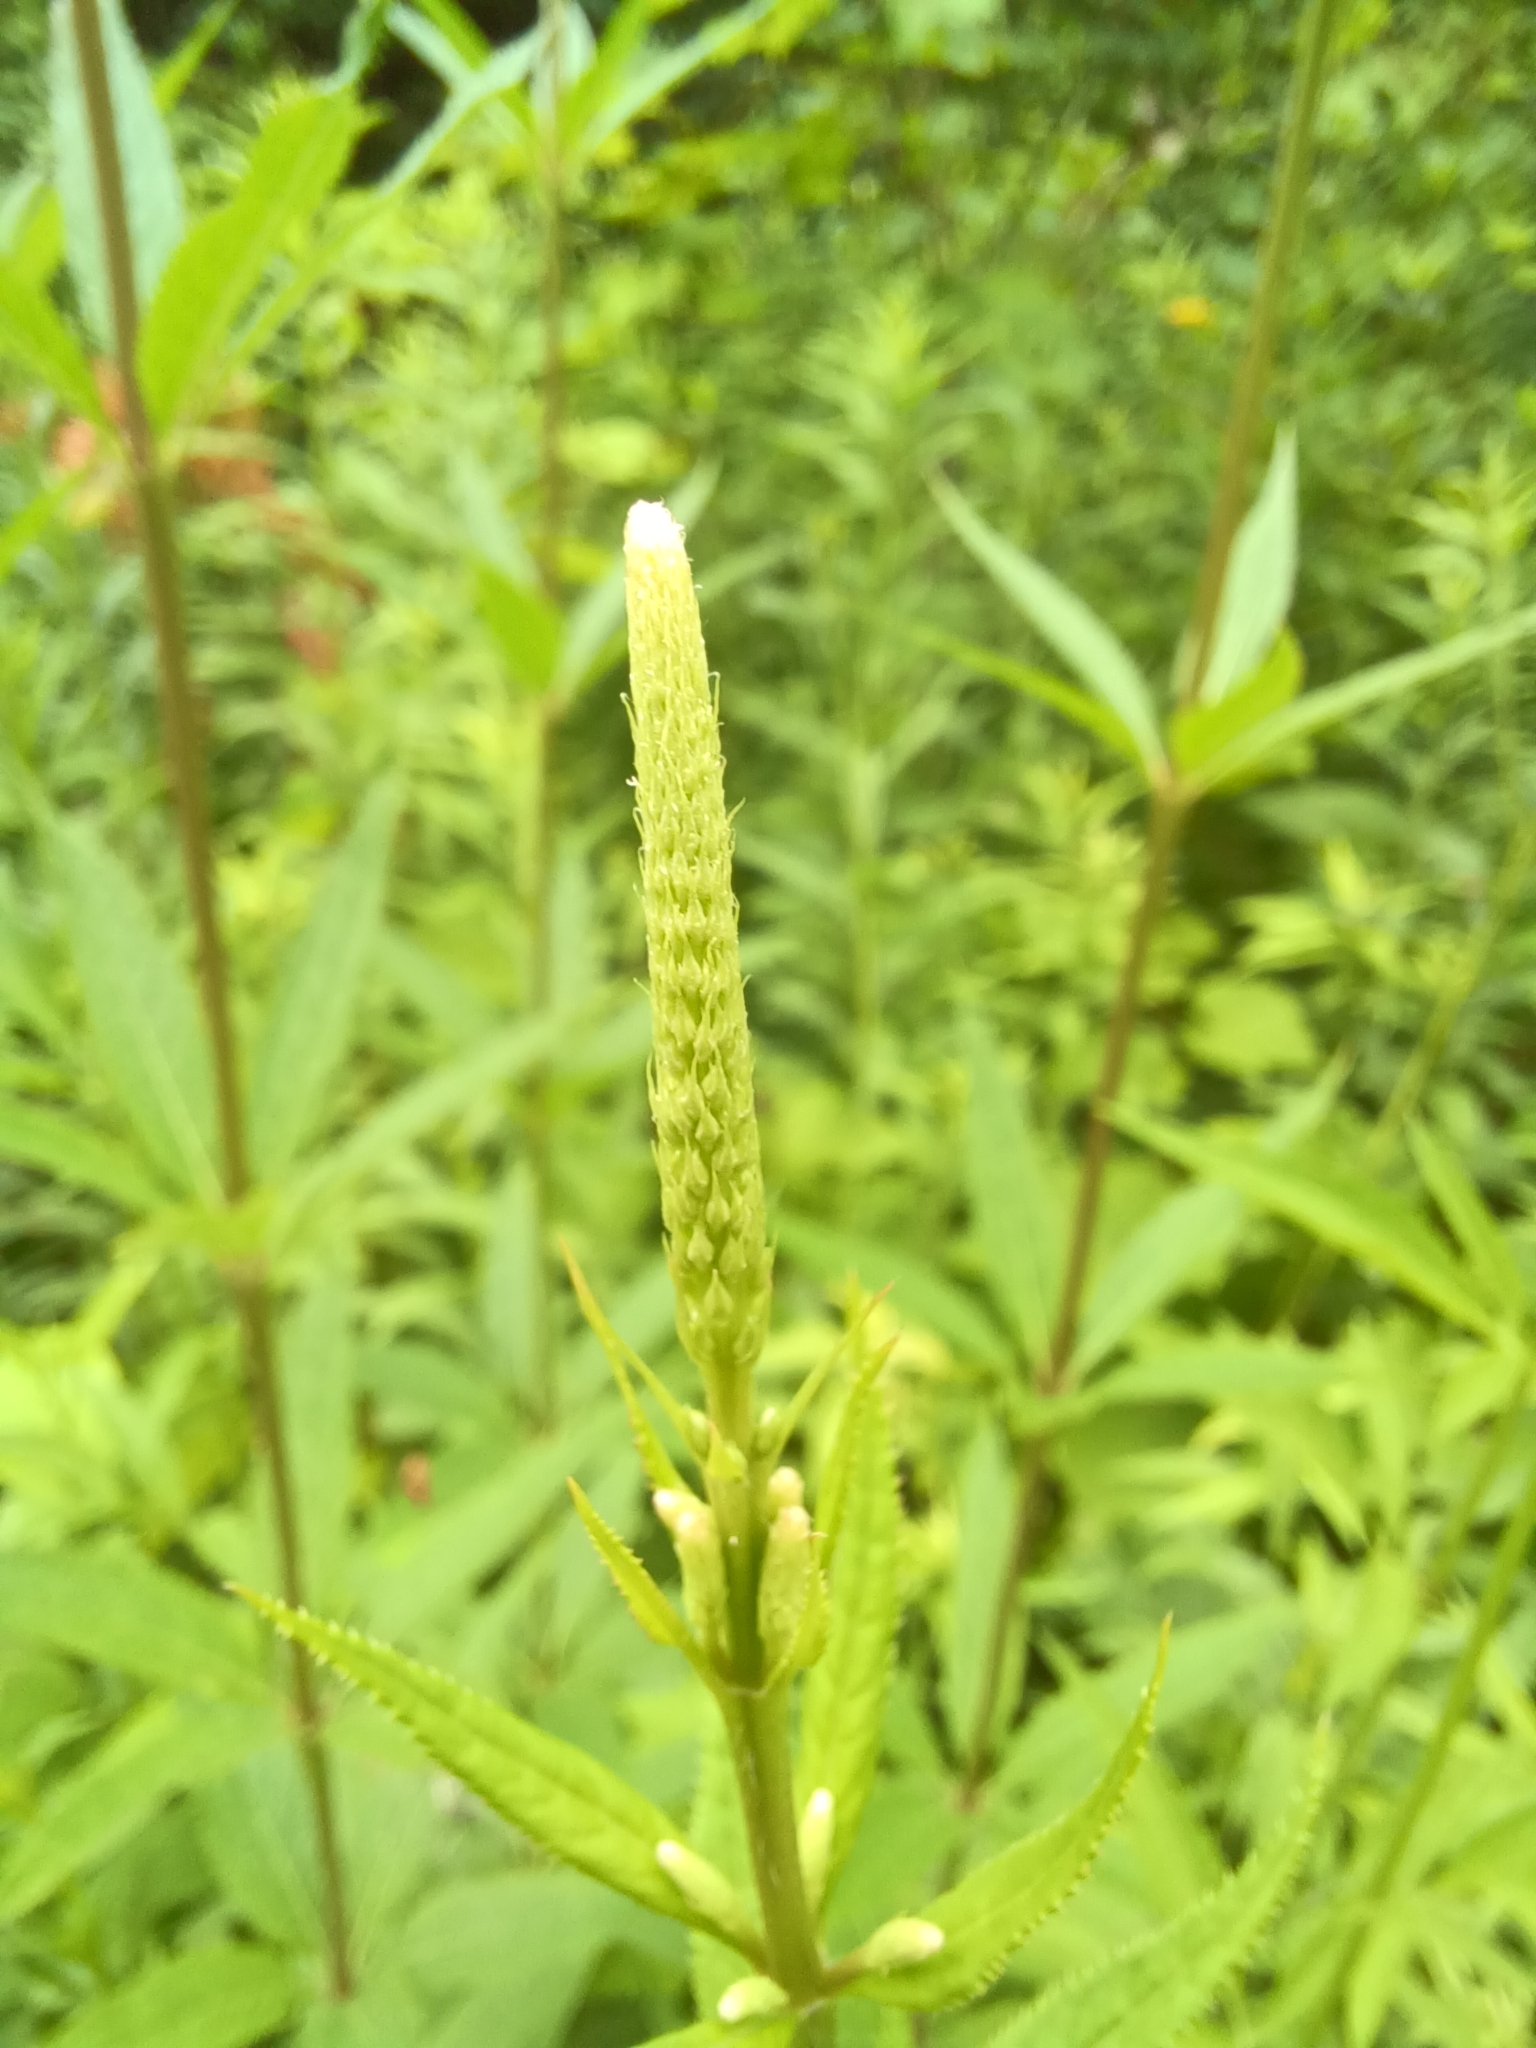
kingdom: Plantae
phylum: Tracheophyta
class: Magnoliopsida
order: Lamiales
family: Plantaginaceae
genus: Veronicastrum
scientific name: Veronicastrum virginicum
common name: Blackroot
